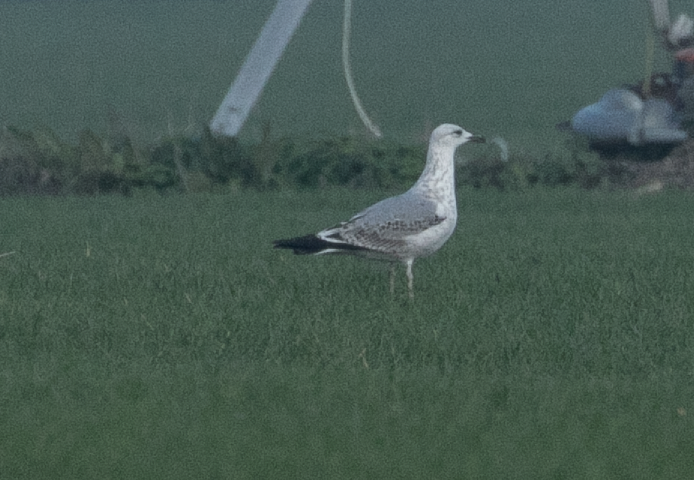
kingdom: Animalia
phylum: Chordata
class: Aves
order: Charadriiformes
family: Laridae
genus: Larus
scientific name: Larus michahellis
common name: Yellow-legged gull
